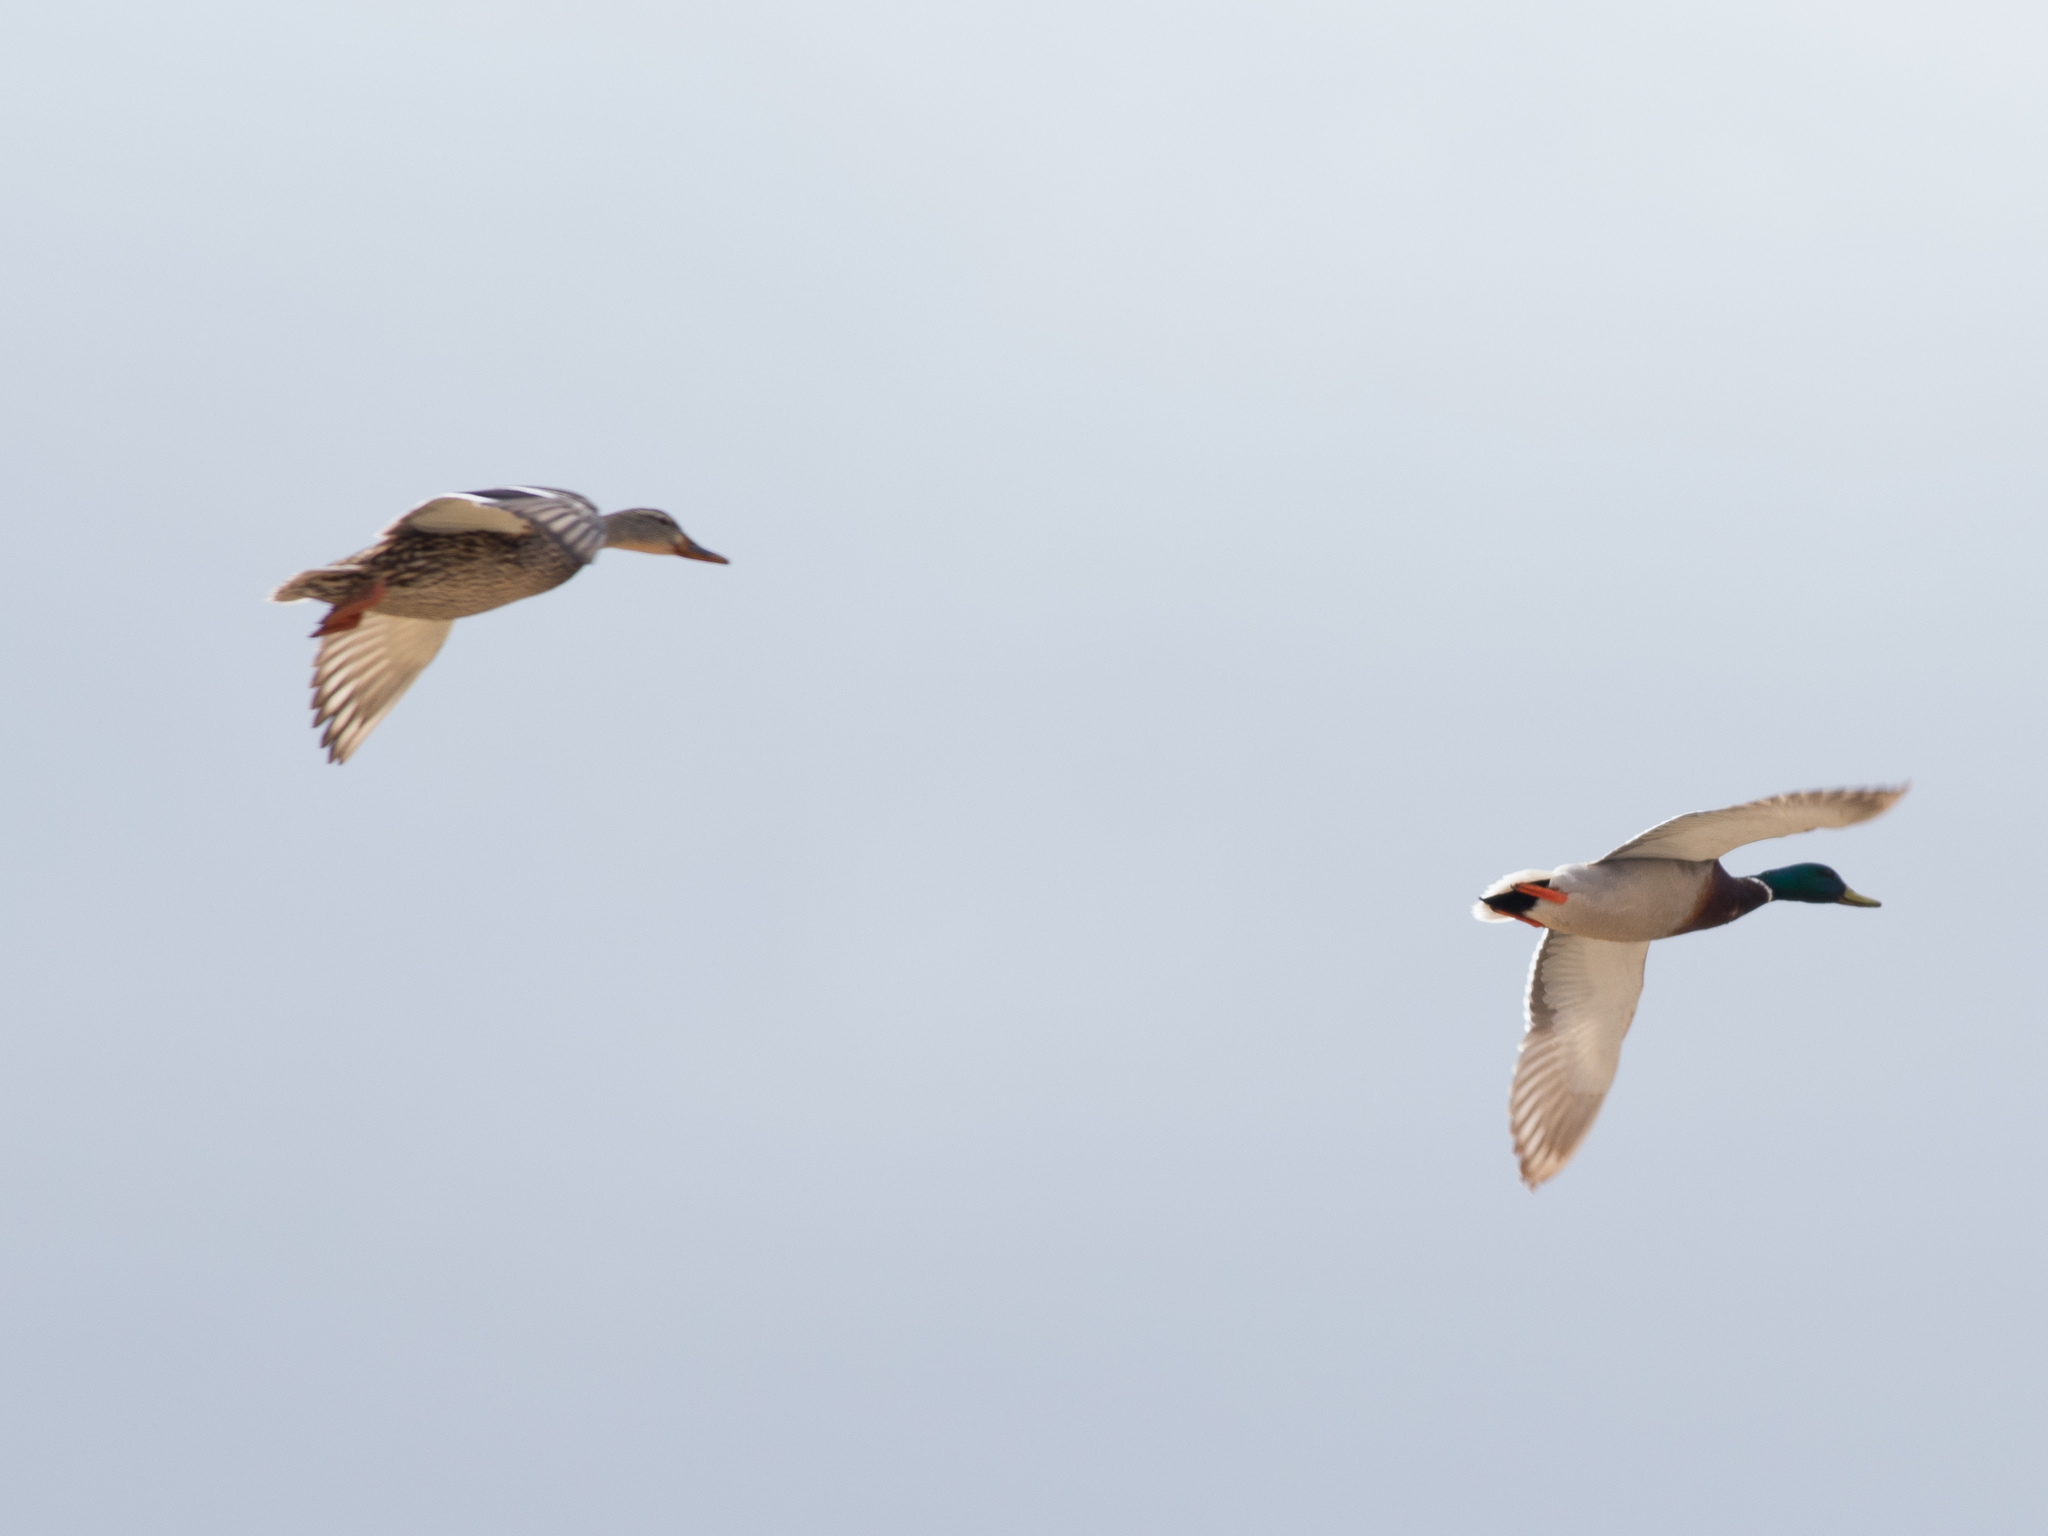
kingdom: Animalia
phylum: Chordata
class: Aves
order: Anseriformes
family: Anatidae
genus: Anas
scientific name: Anas platyrhynchos
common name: Mallard
